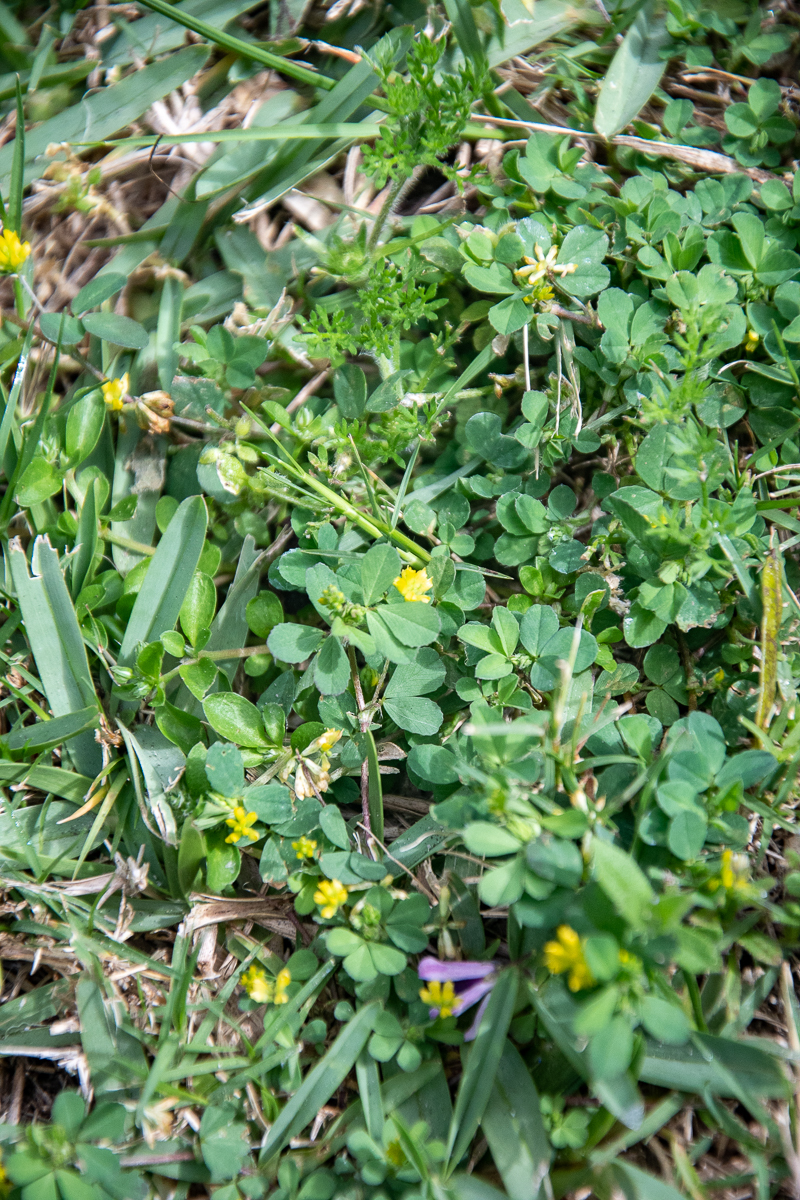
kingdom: Plantae
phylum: Tracheophyta
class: Magnoliopsida
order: Fabales
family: Fabaceae
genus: Trifolium
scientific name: Trifolium dubium
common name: Suckling clover
